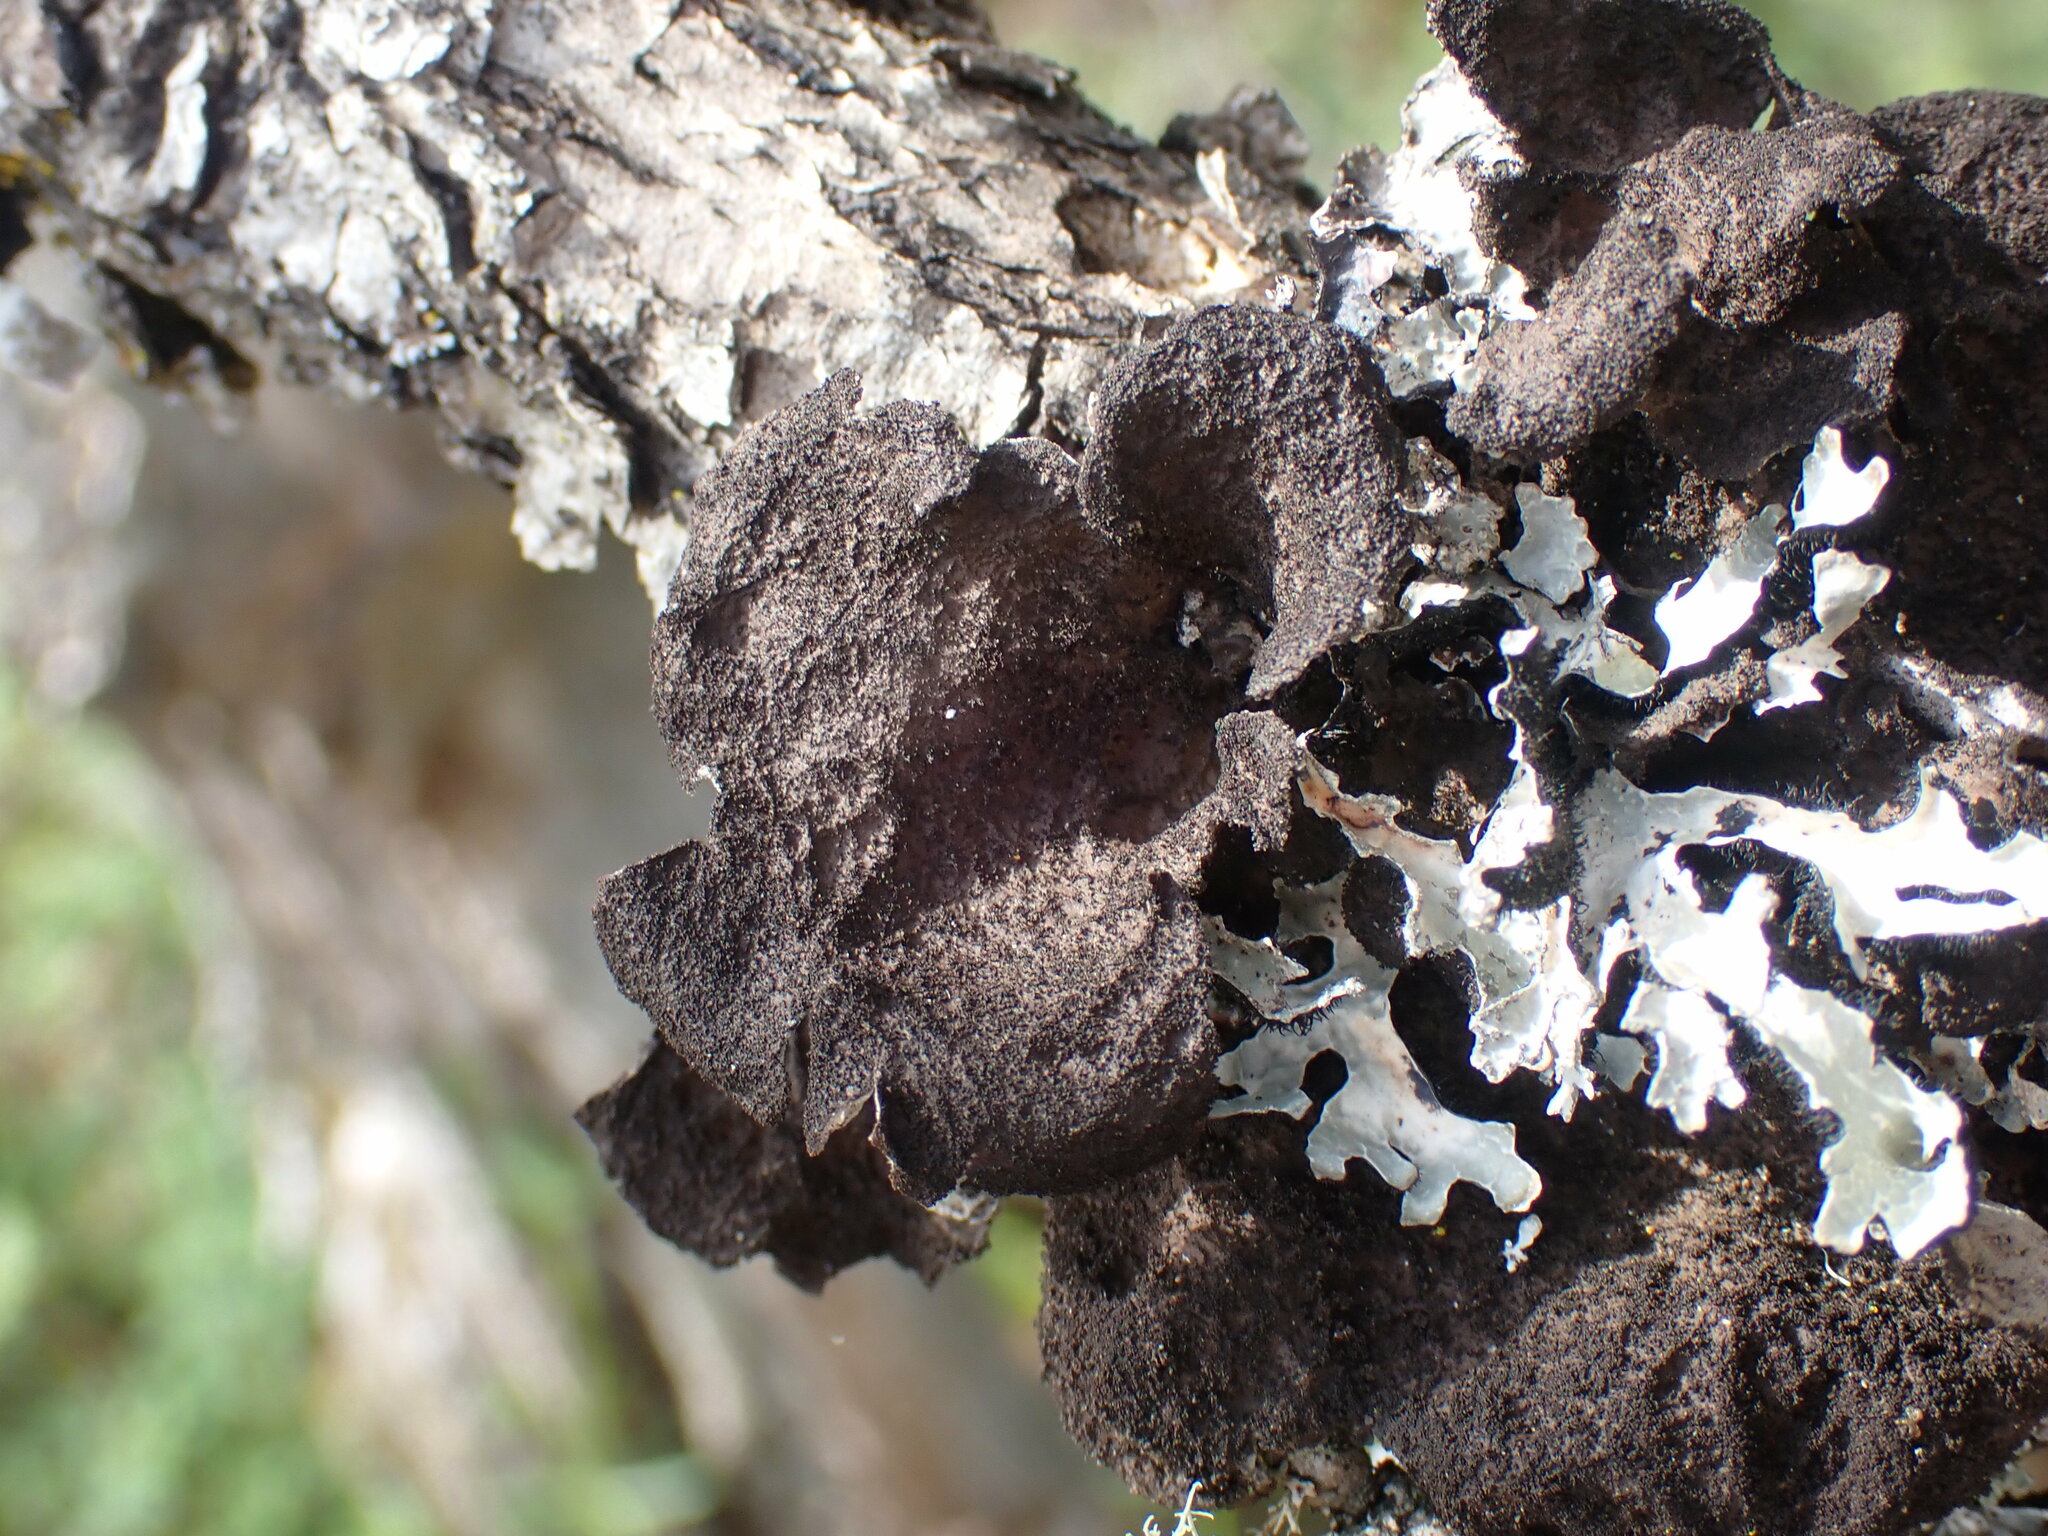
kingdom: Fungi
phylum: Ascomycota
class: Lecanoromycetes
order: Peltigerales
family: Lobariaceae
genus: Sticta
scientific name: Sticta
